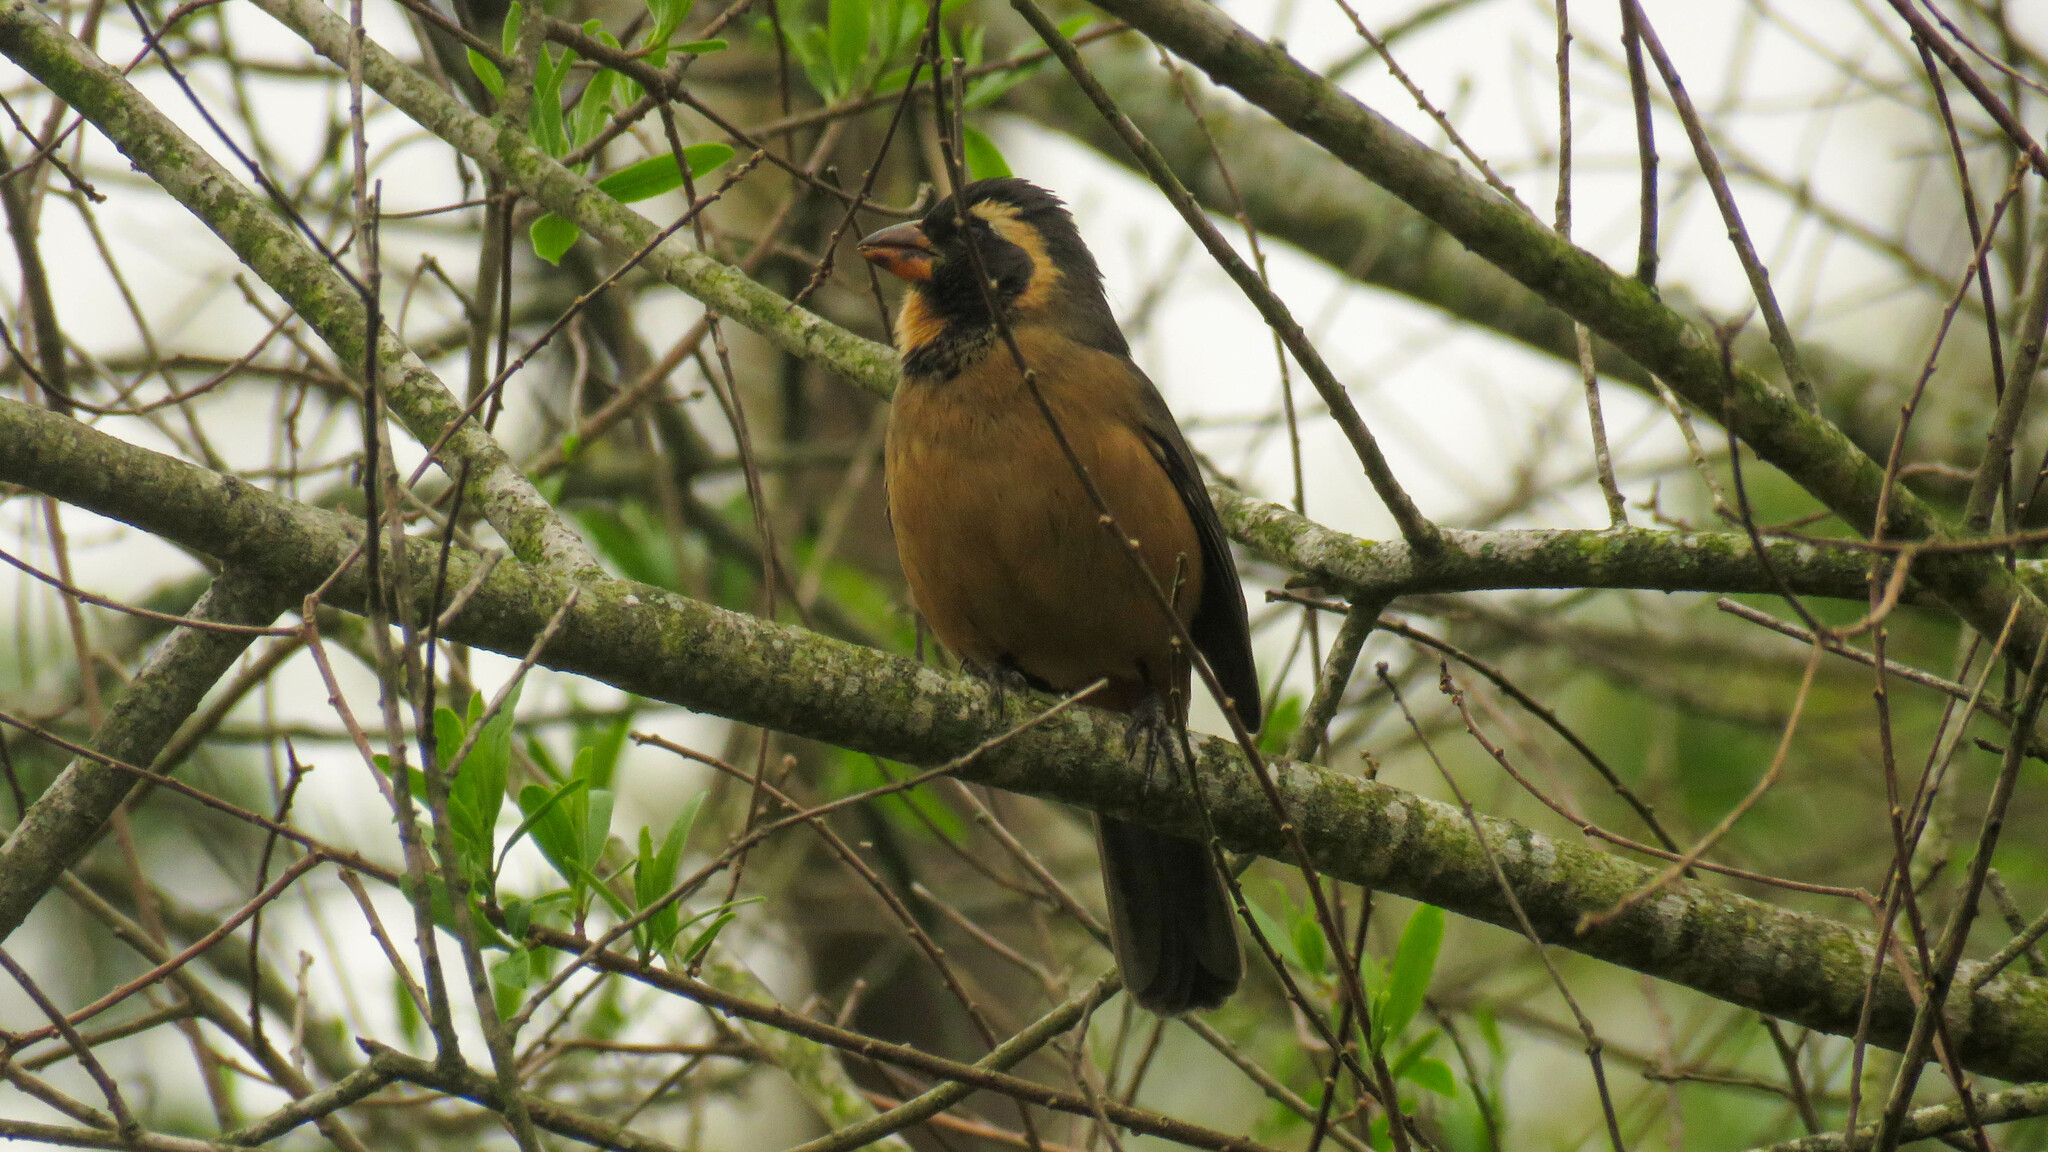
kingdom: Animalia
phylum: Chordata
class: Aves
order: Passeriformes
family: Thraupidae
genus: Saltator
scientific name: Saltator aurantiirostris
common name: Golden-billed saltator
